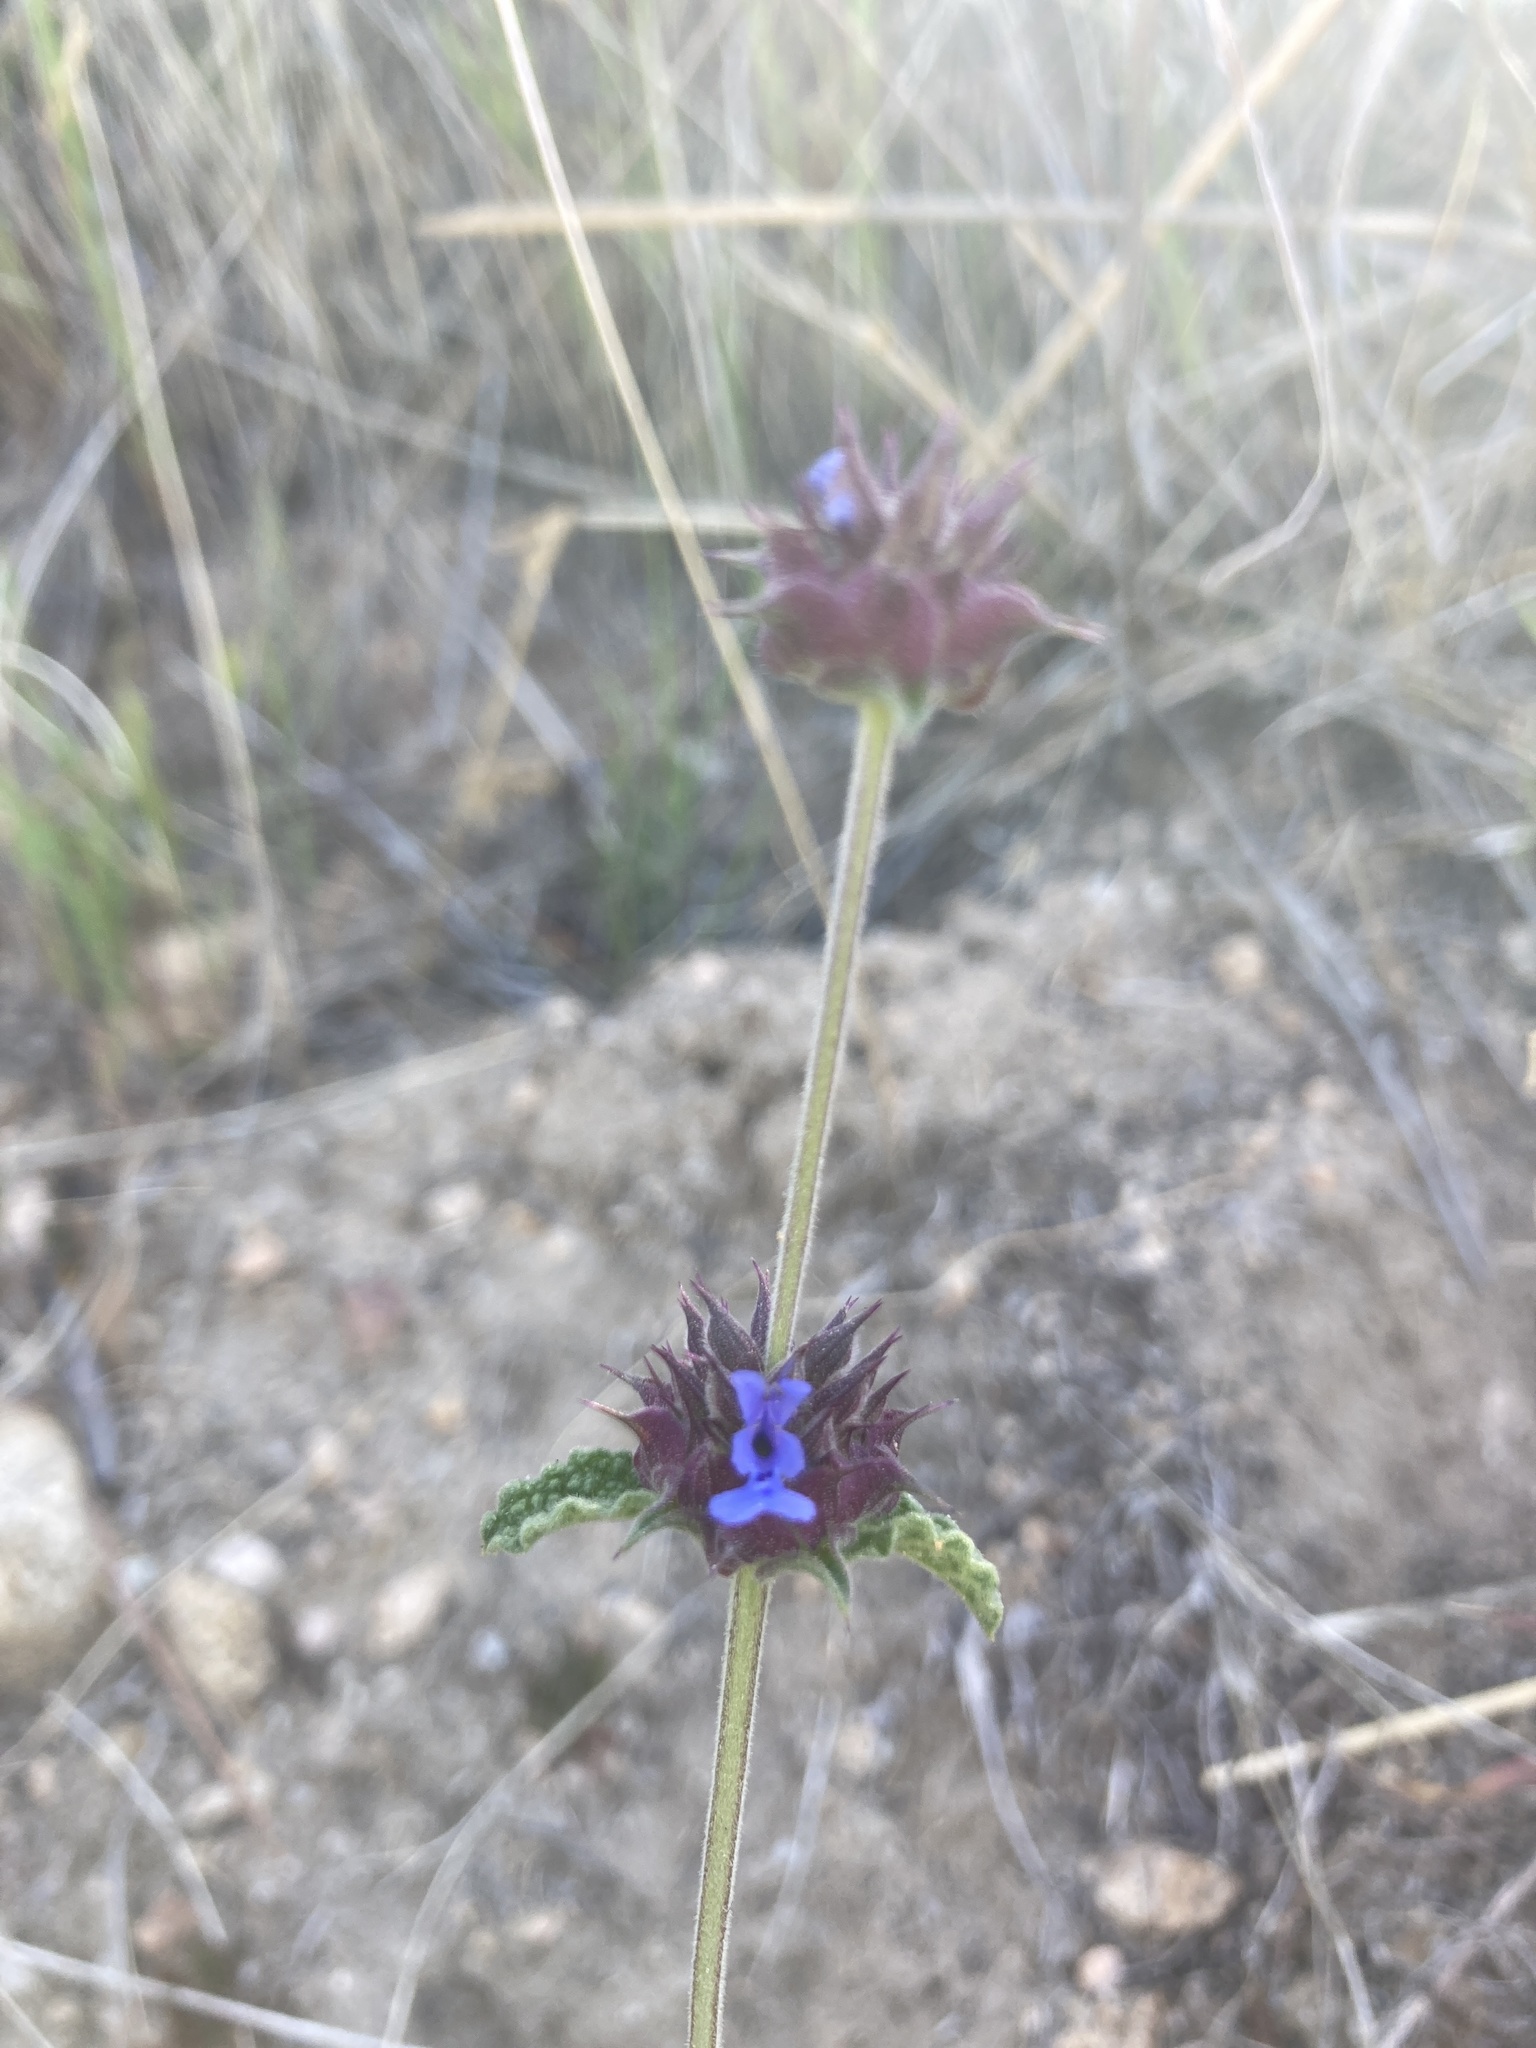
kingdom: Plantae
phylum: Tracheophyta
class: Magnoliopsida
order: Lamiales
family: Lamiaceae
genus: Salvia
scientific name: Salvia columbariae
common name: Chia
